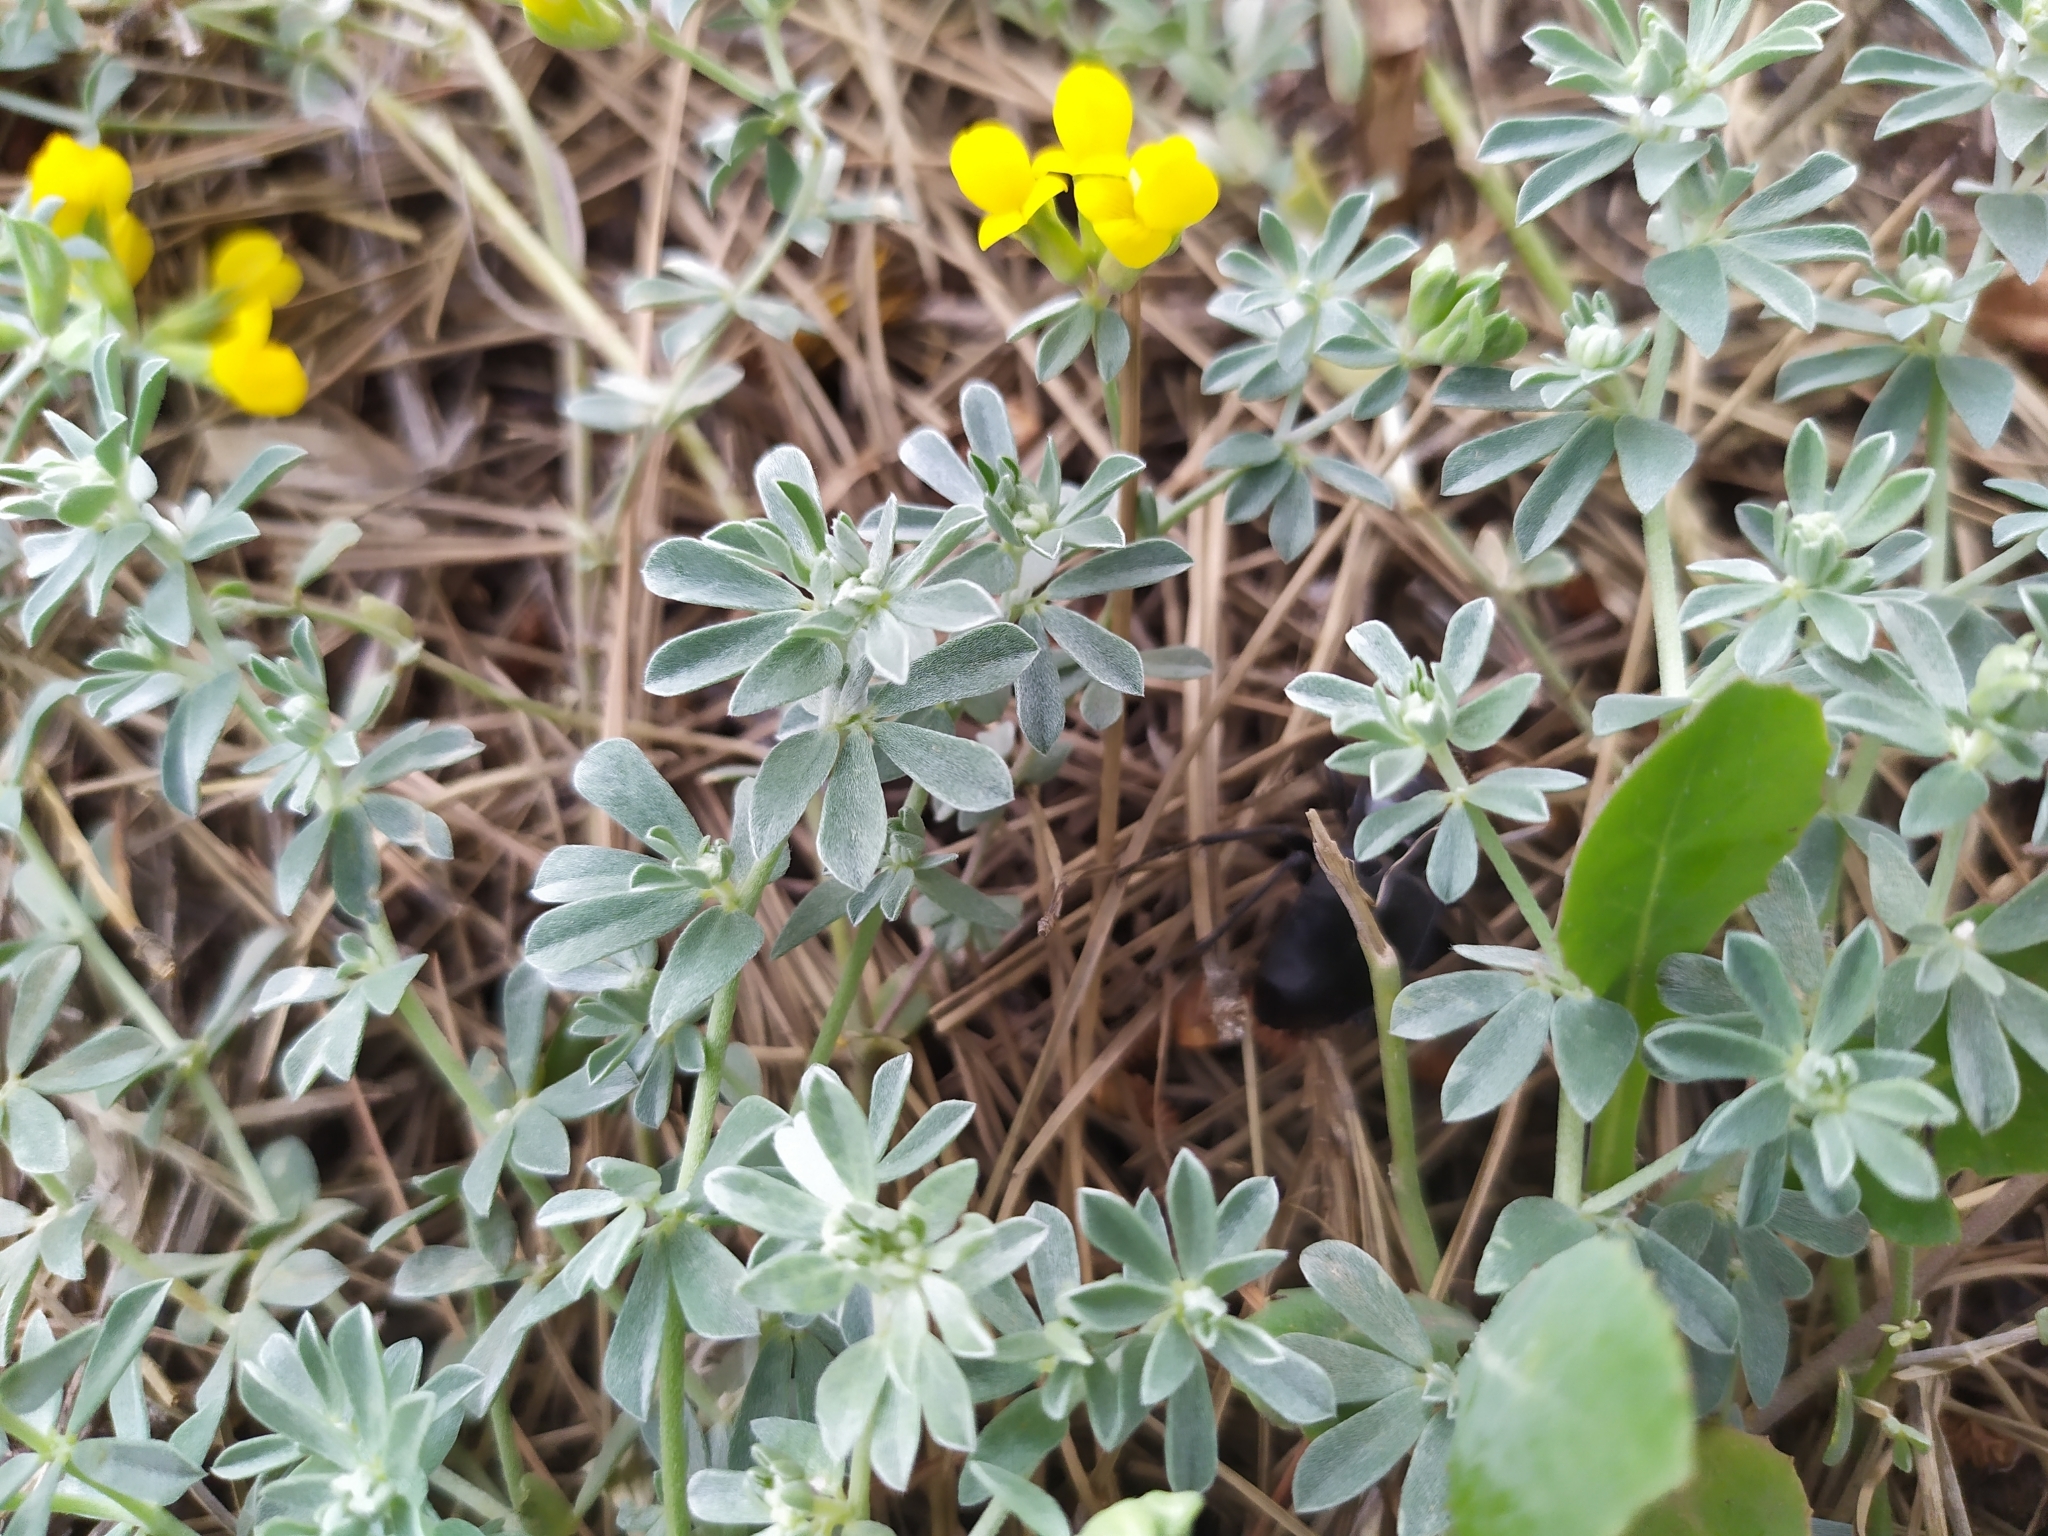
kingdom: Plantae
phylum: Tracheophyta
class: Magnoliopsida
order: Fabales
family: Fabaceae
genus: Lotus
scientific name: Lotus cytisoides
